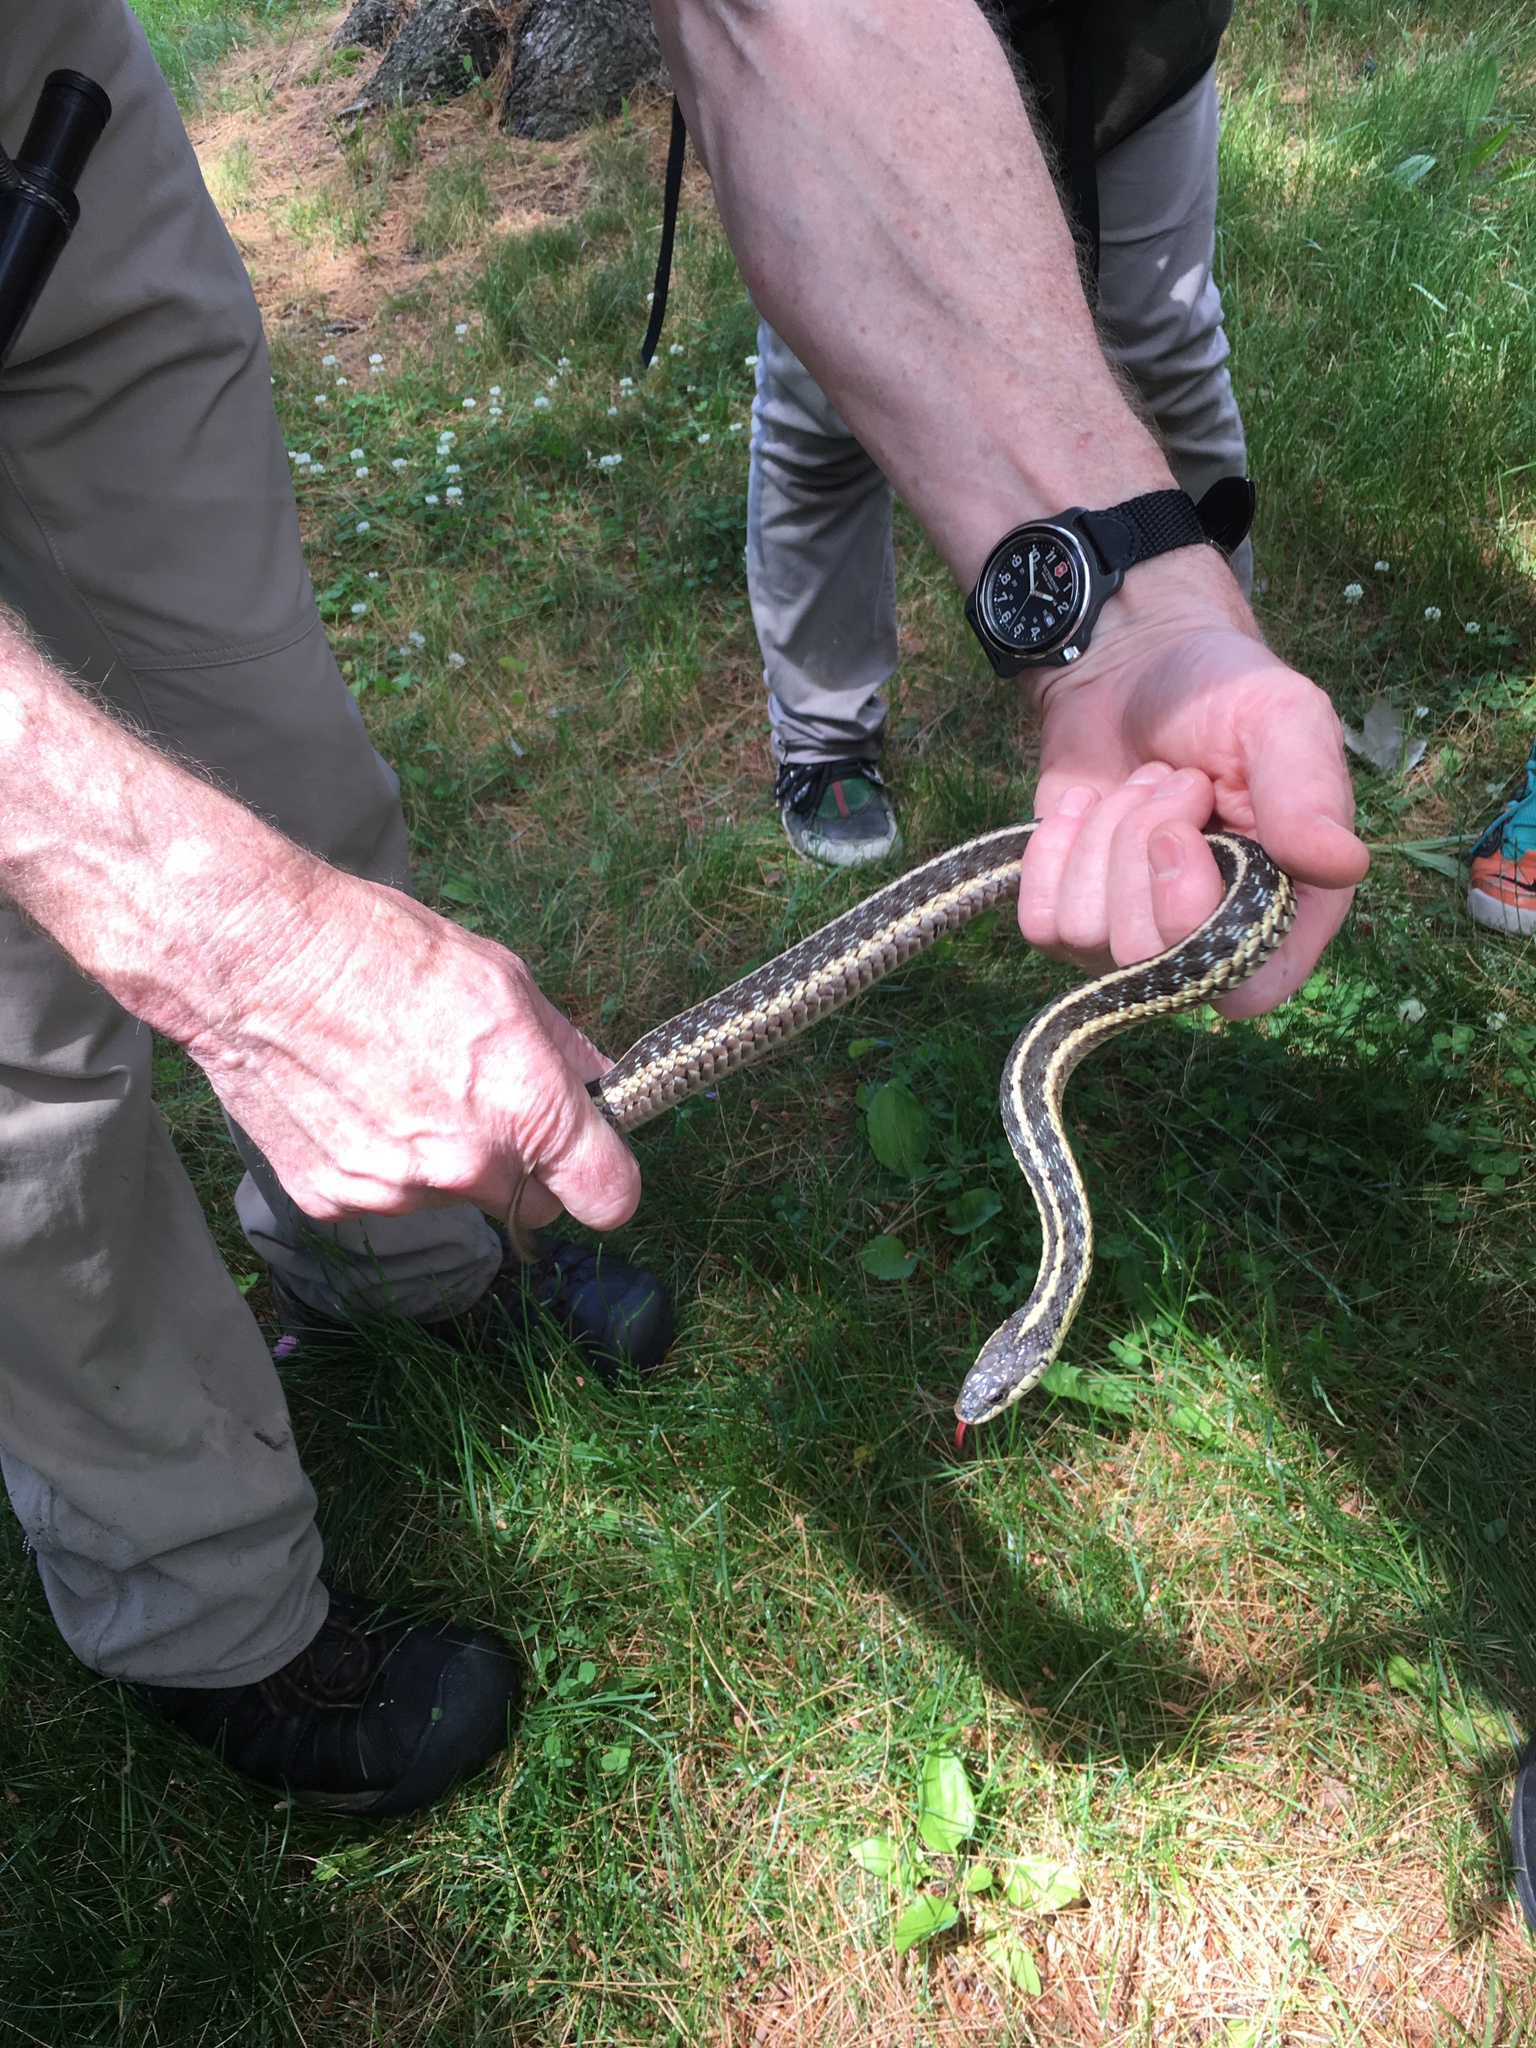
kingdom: Animalia
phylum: Chordata
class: Squamata
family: Colubridae
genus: Thamnophis
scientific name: Thamnophis sirtalis
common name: Common garter snake
